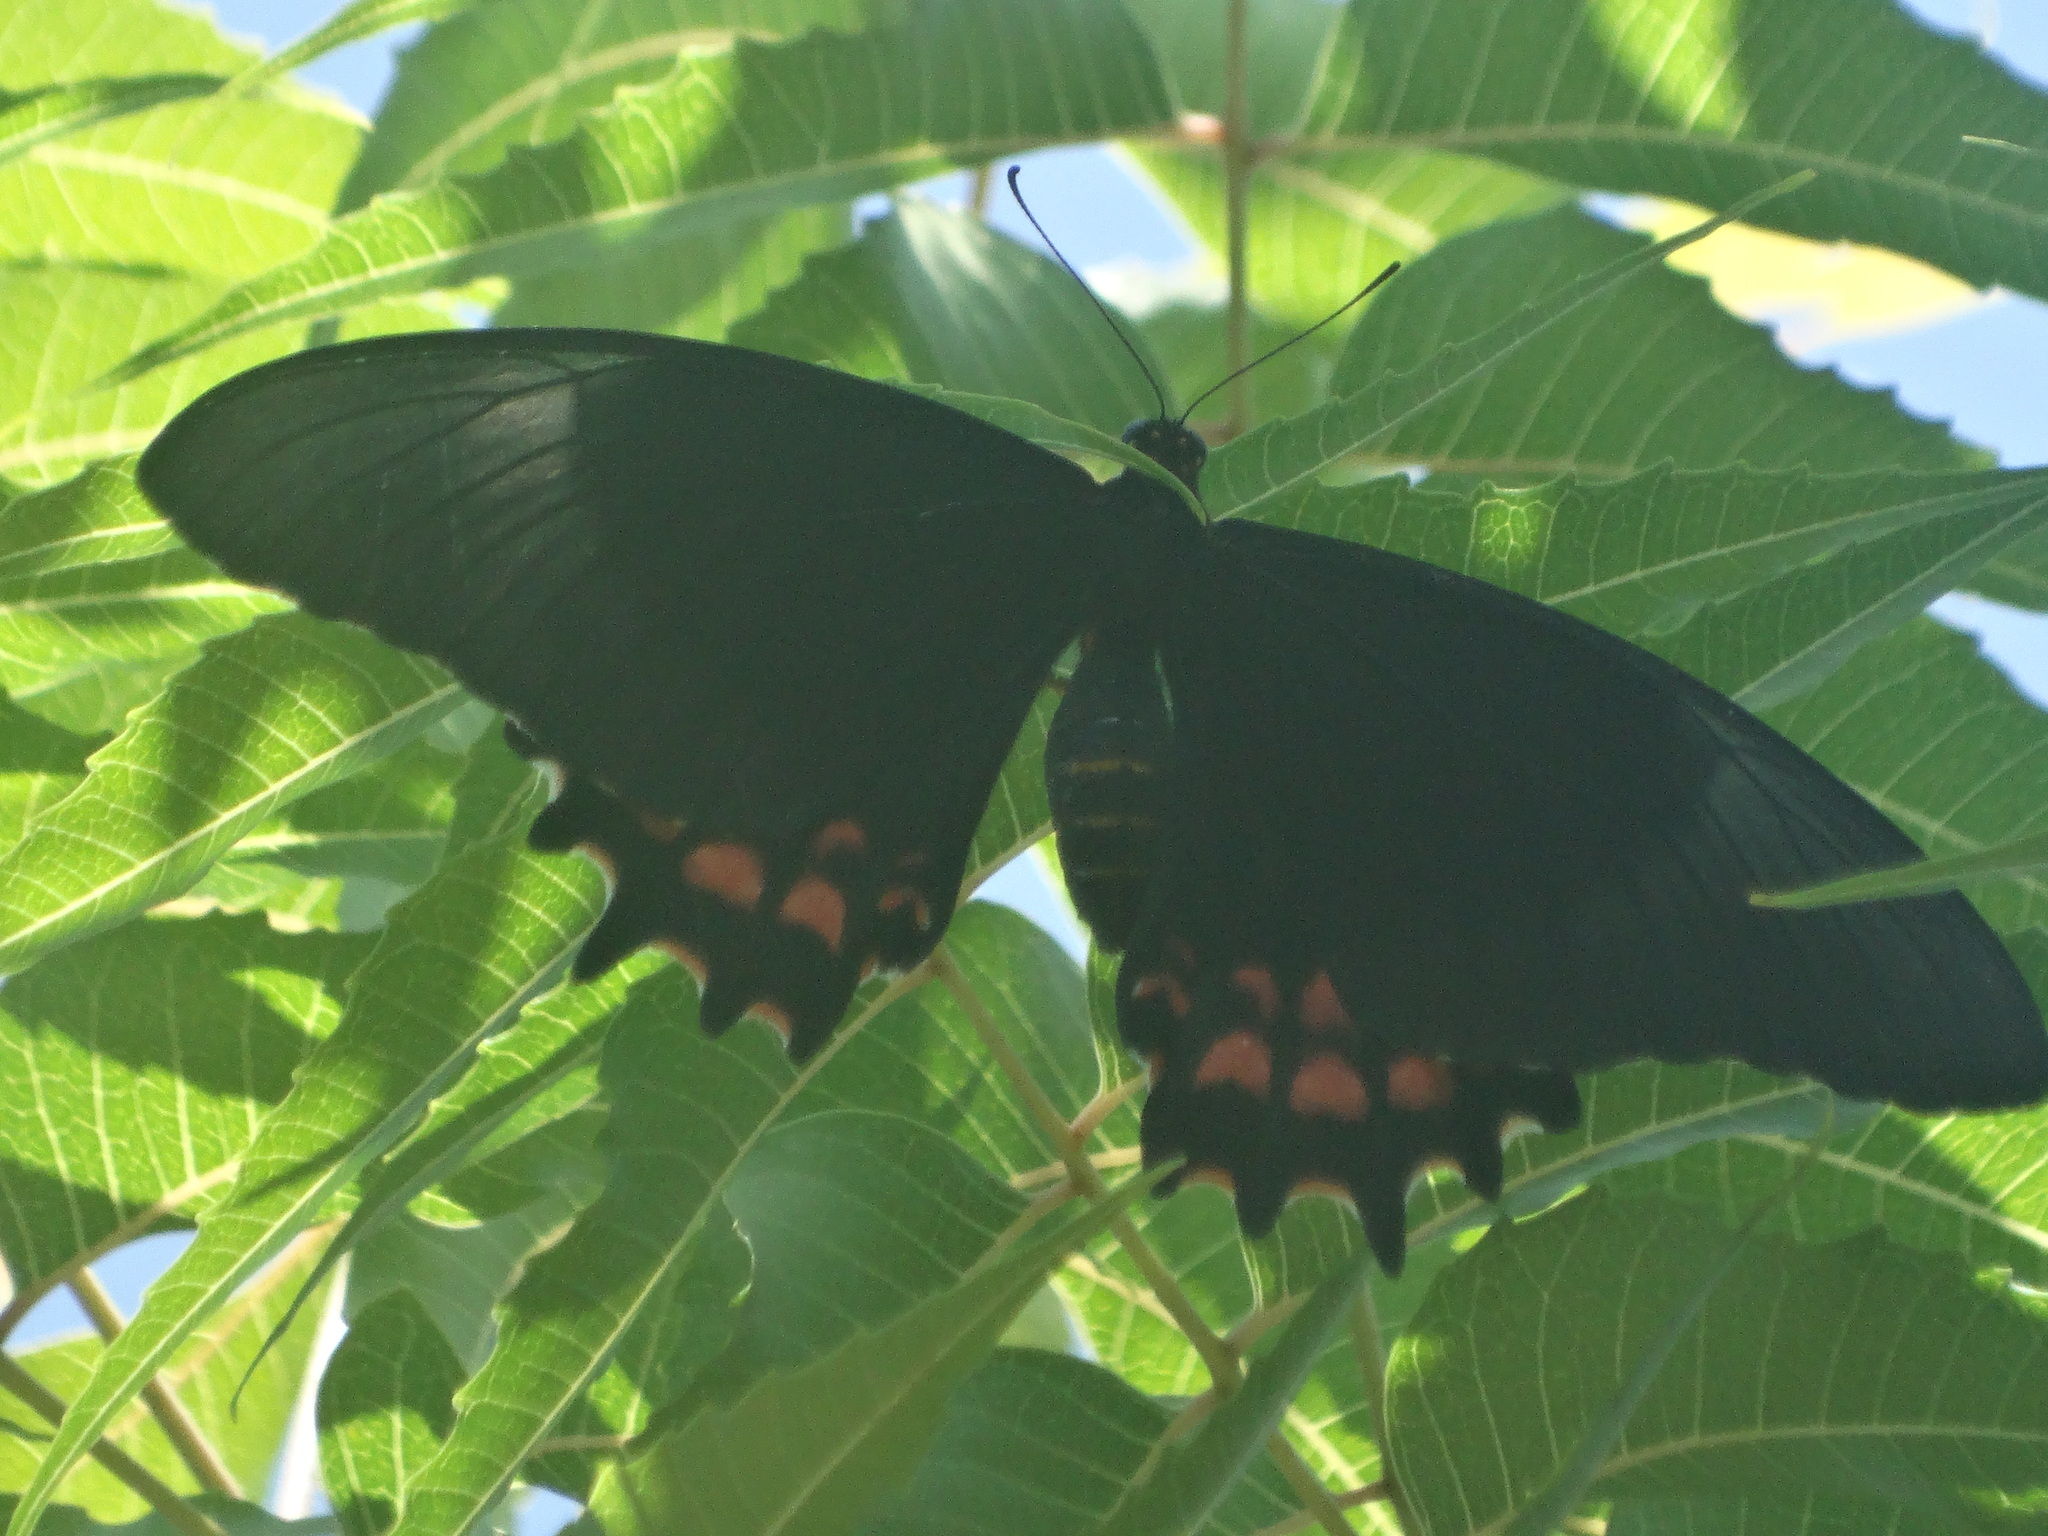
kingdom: Animalia
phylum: Arthropoda
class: Insecta
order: Lepidoptera
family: Papilionidae
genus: Heraclides
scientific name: Heraclides rogeri
